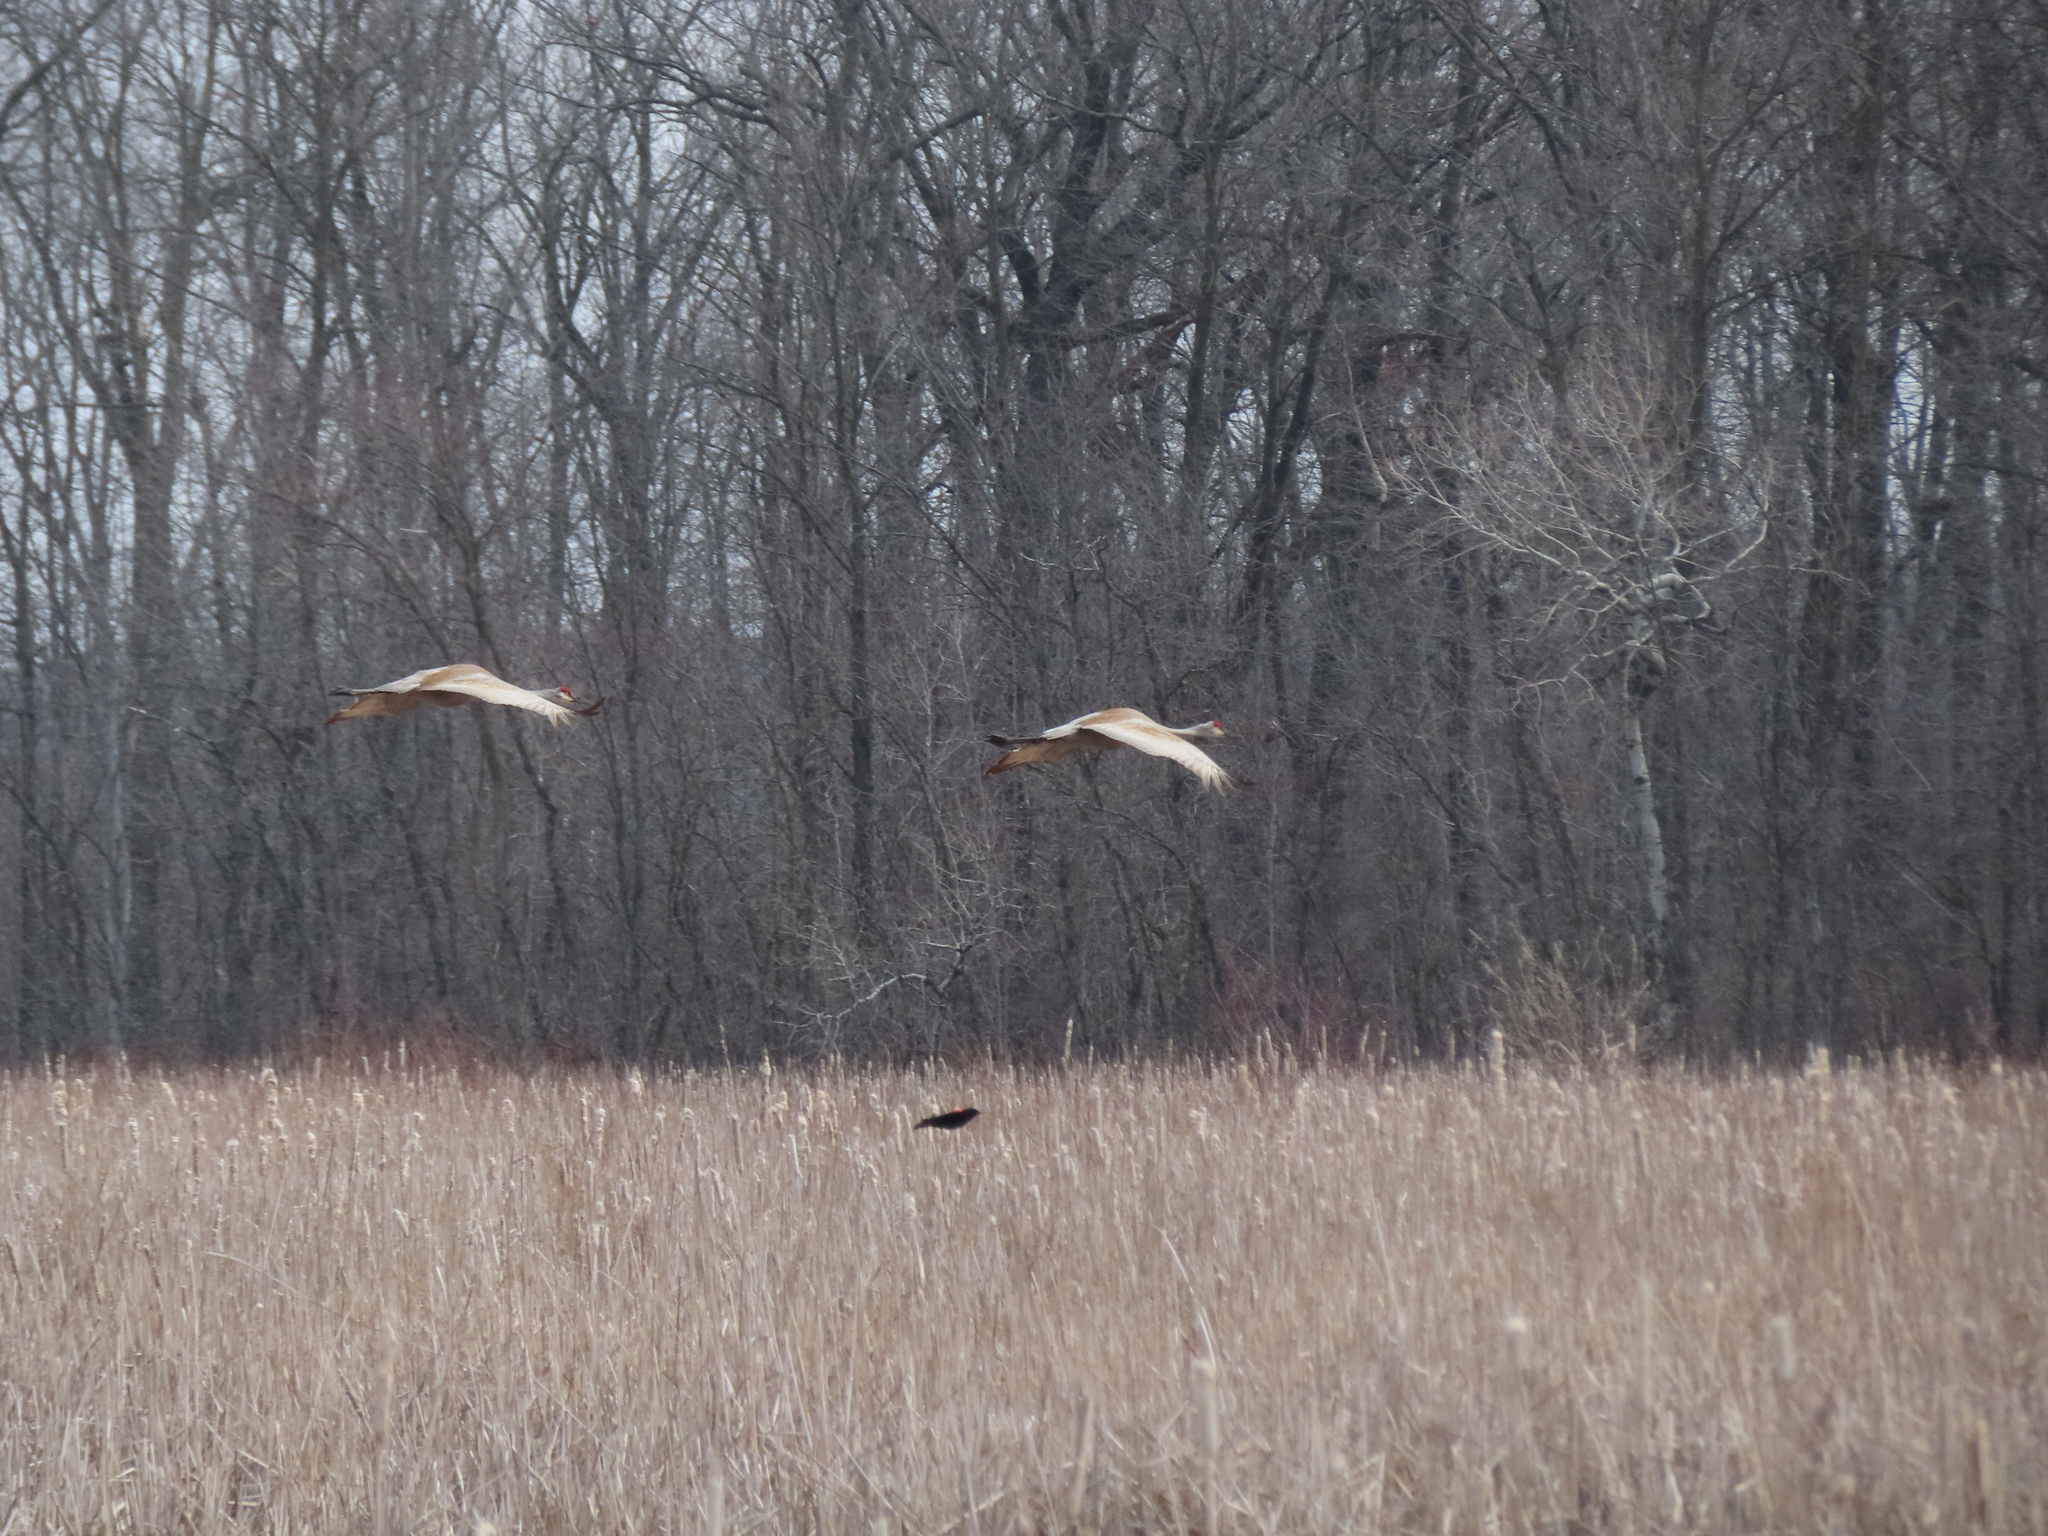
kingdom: Animalia
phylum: Chordata
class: Aves
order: Gruiformes
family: Gruidae
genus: Grus
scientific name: Grus canadensis
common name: Sandhill crane
